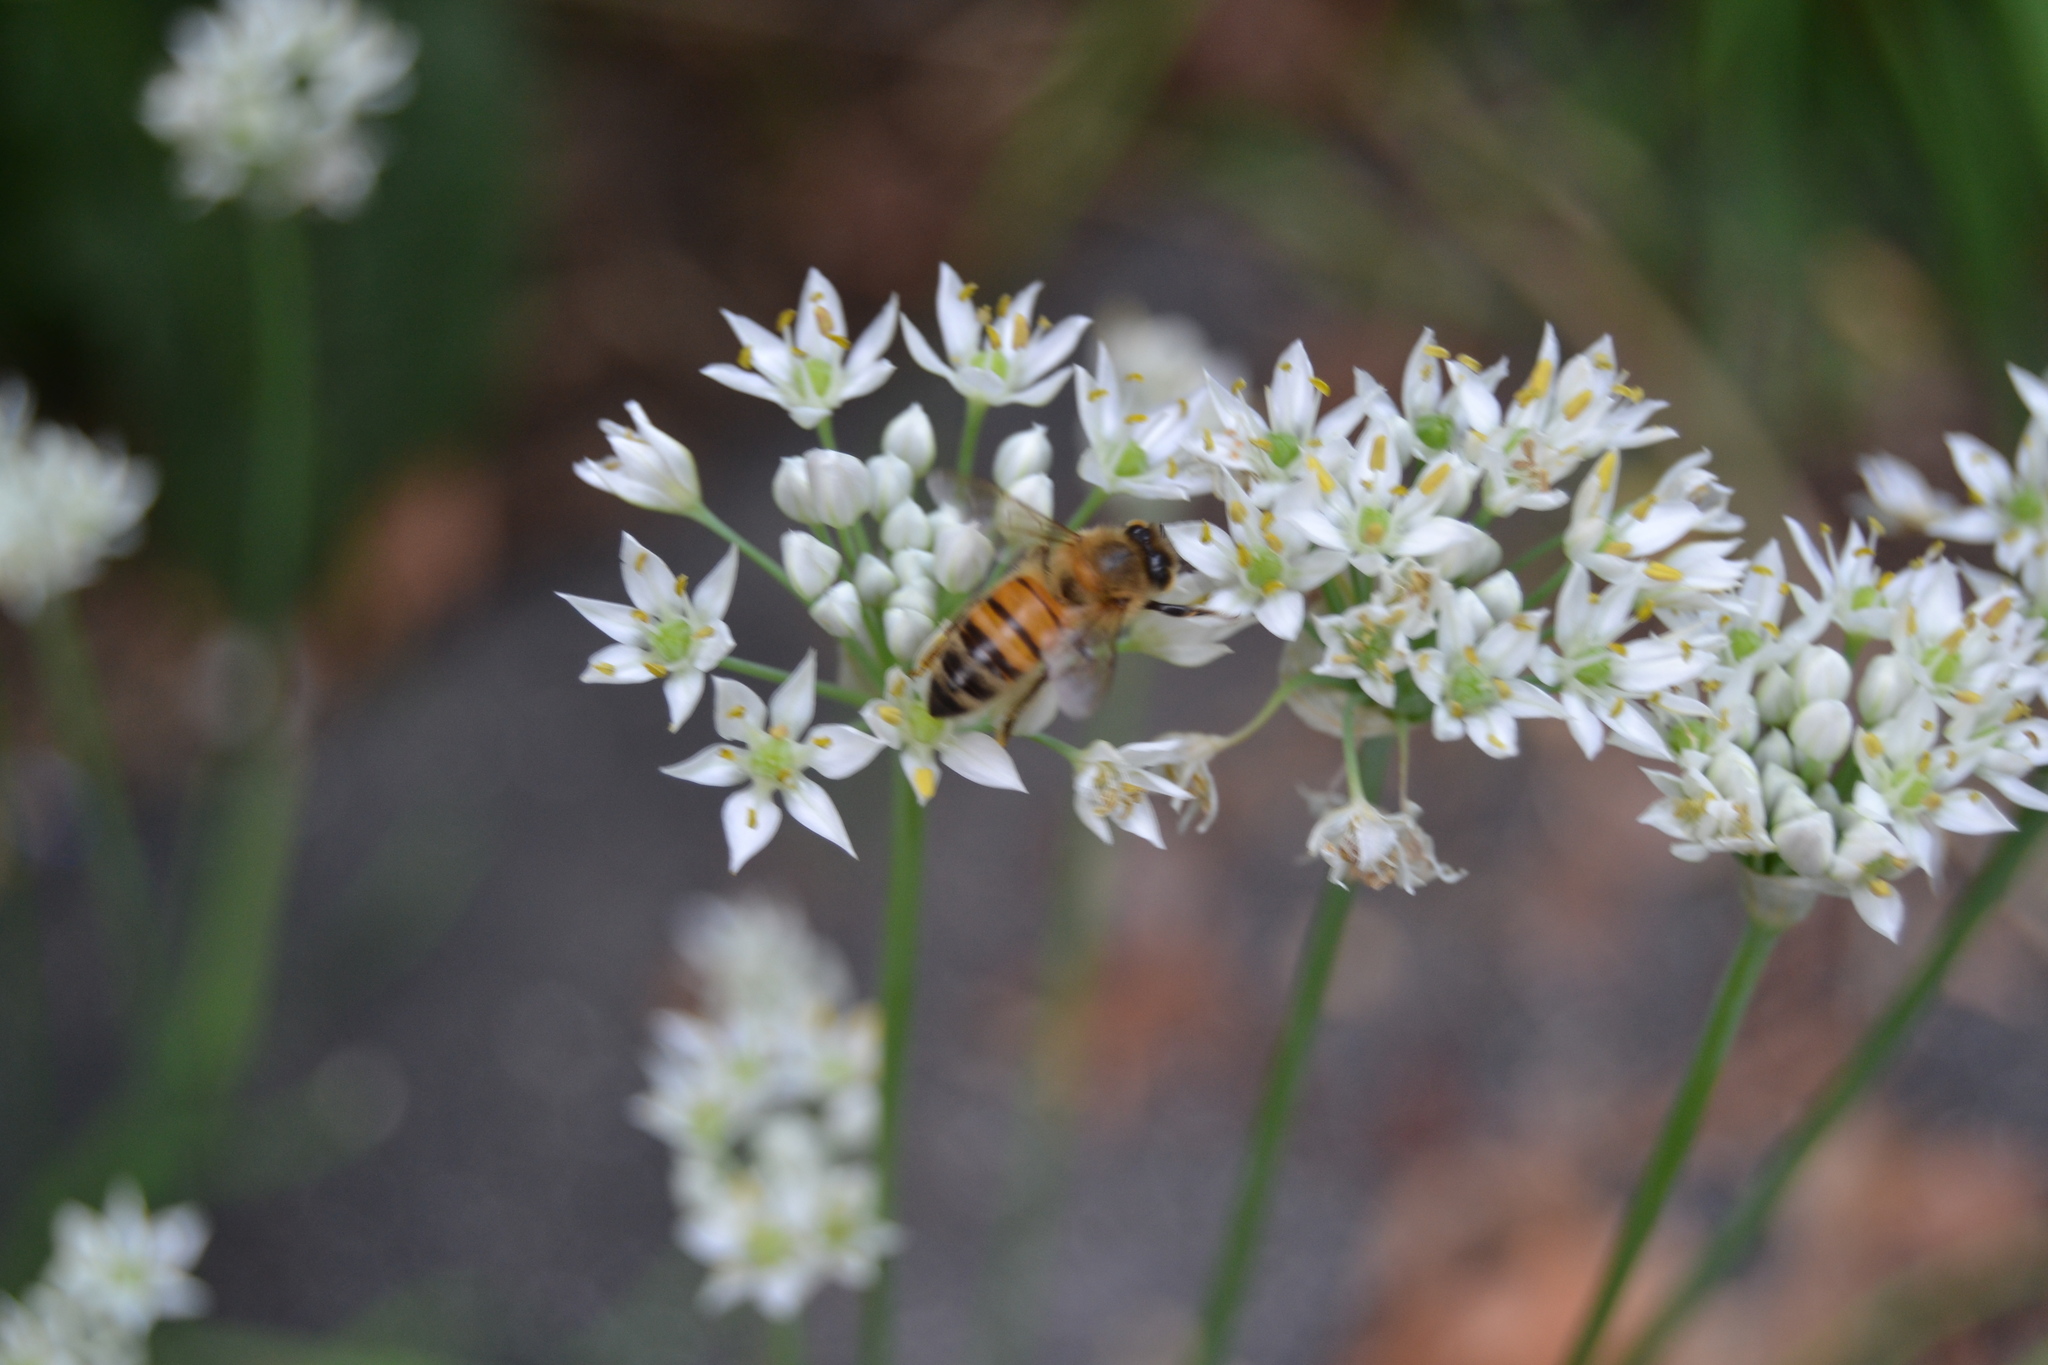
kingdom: Animalia
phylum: Arthropoda
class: Insecta
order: Hymenoptera
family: Apidae
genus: Apis
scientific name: Apis mellifera
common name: Honey bee
